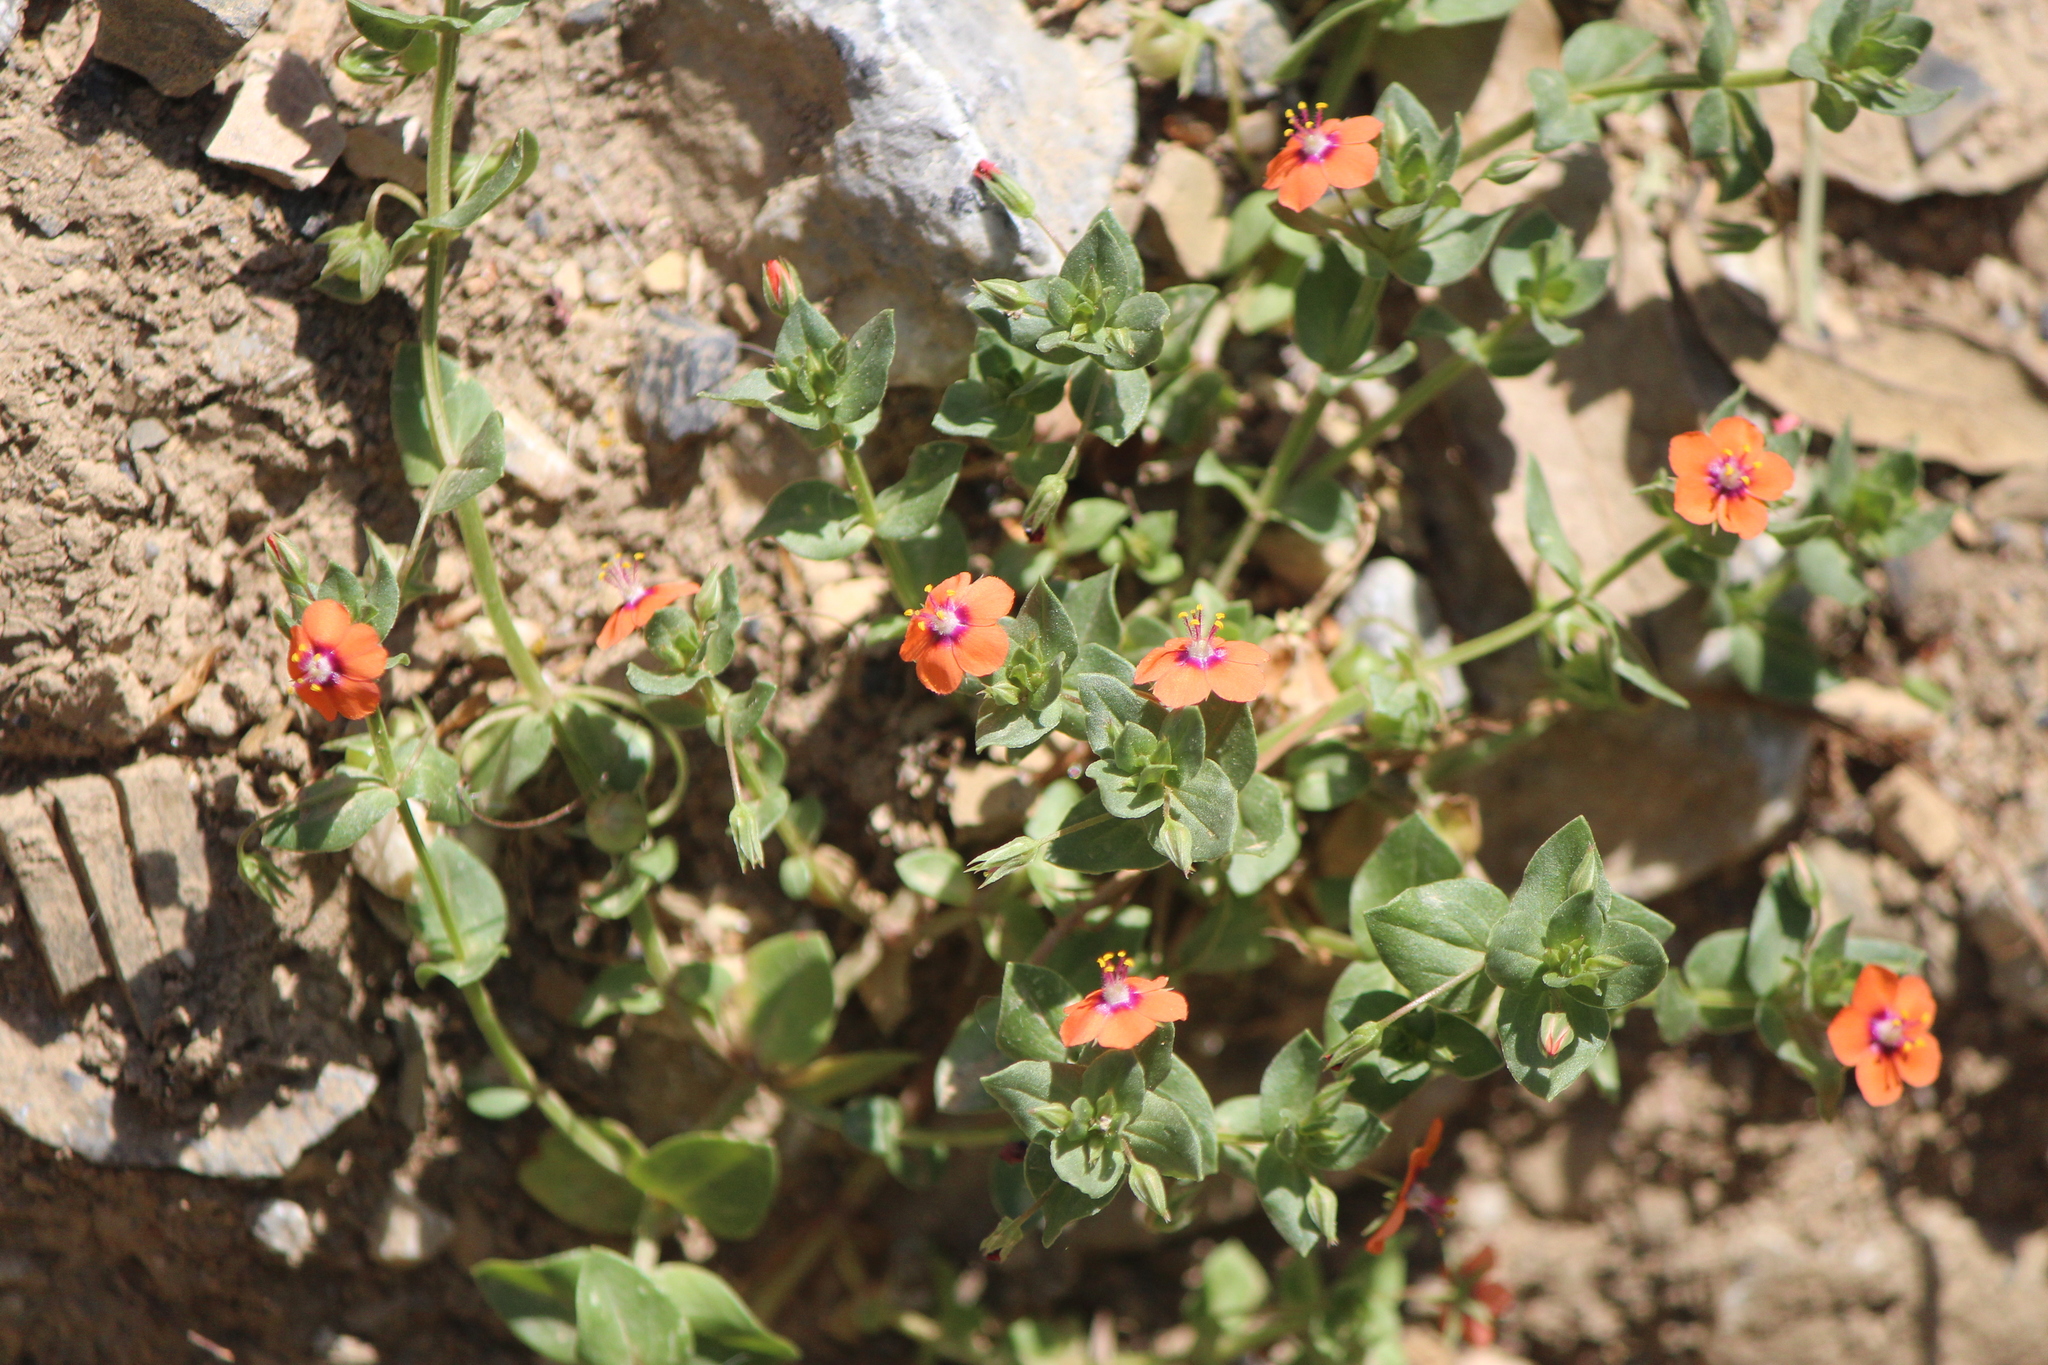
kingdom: Plantae
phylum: Tracheophyta
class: Magnoliopsida
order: Ericales
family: Primulaceae
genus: Lysimachia
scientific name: Lysimachia arvensis
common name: Scarlet pimpernel
